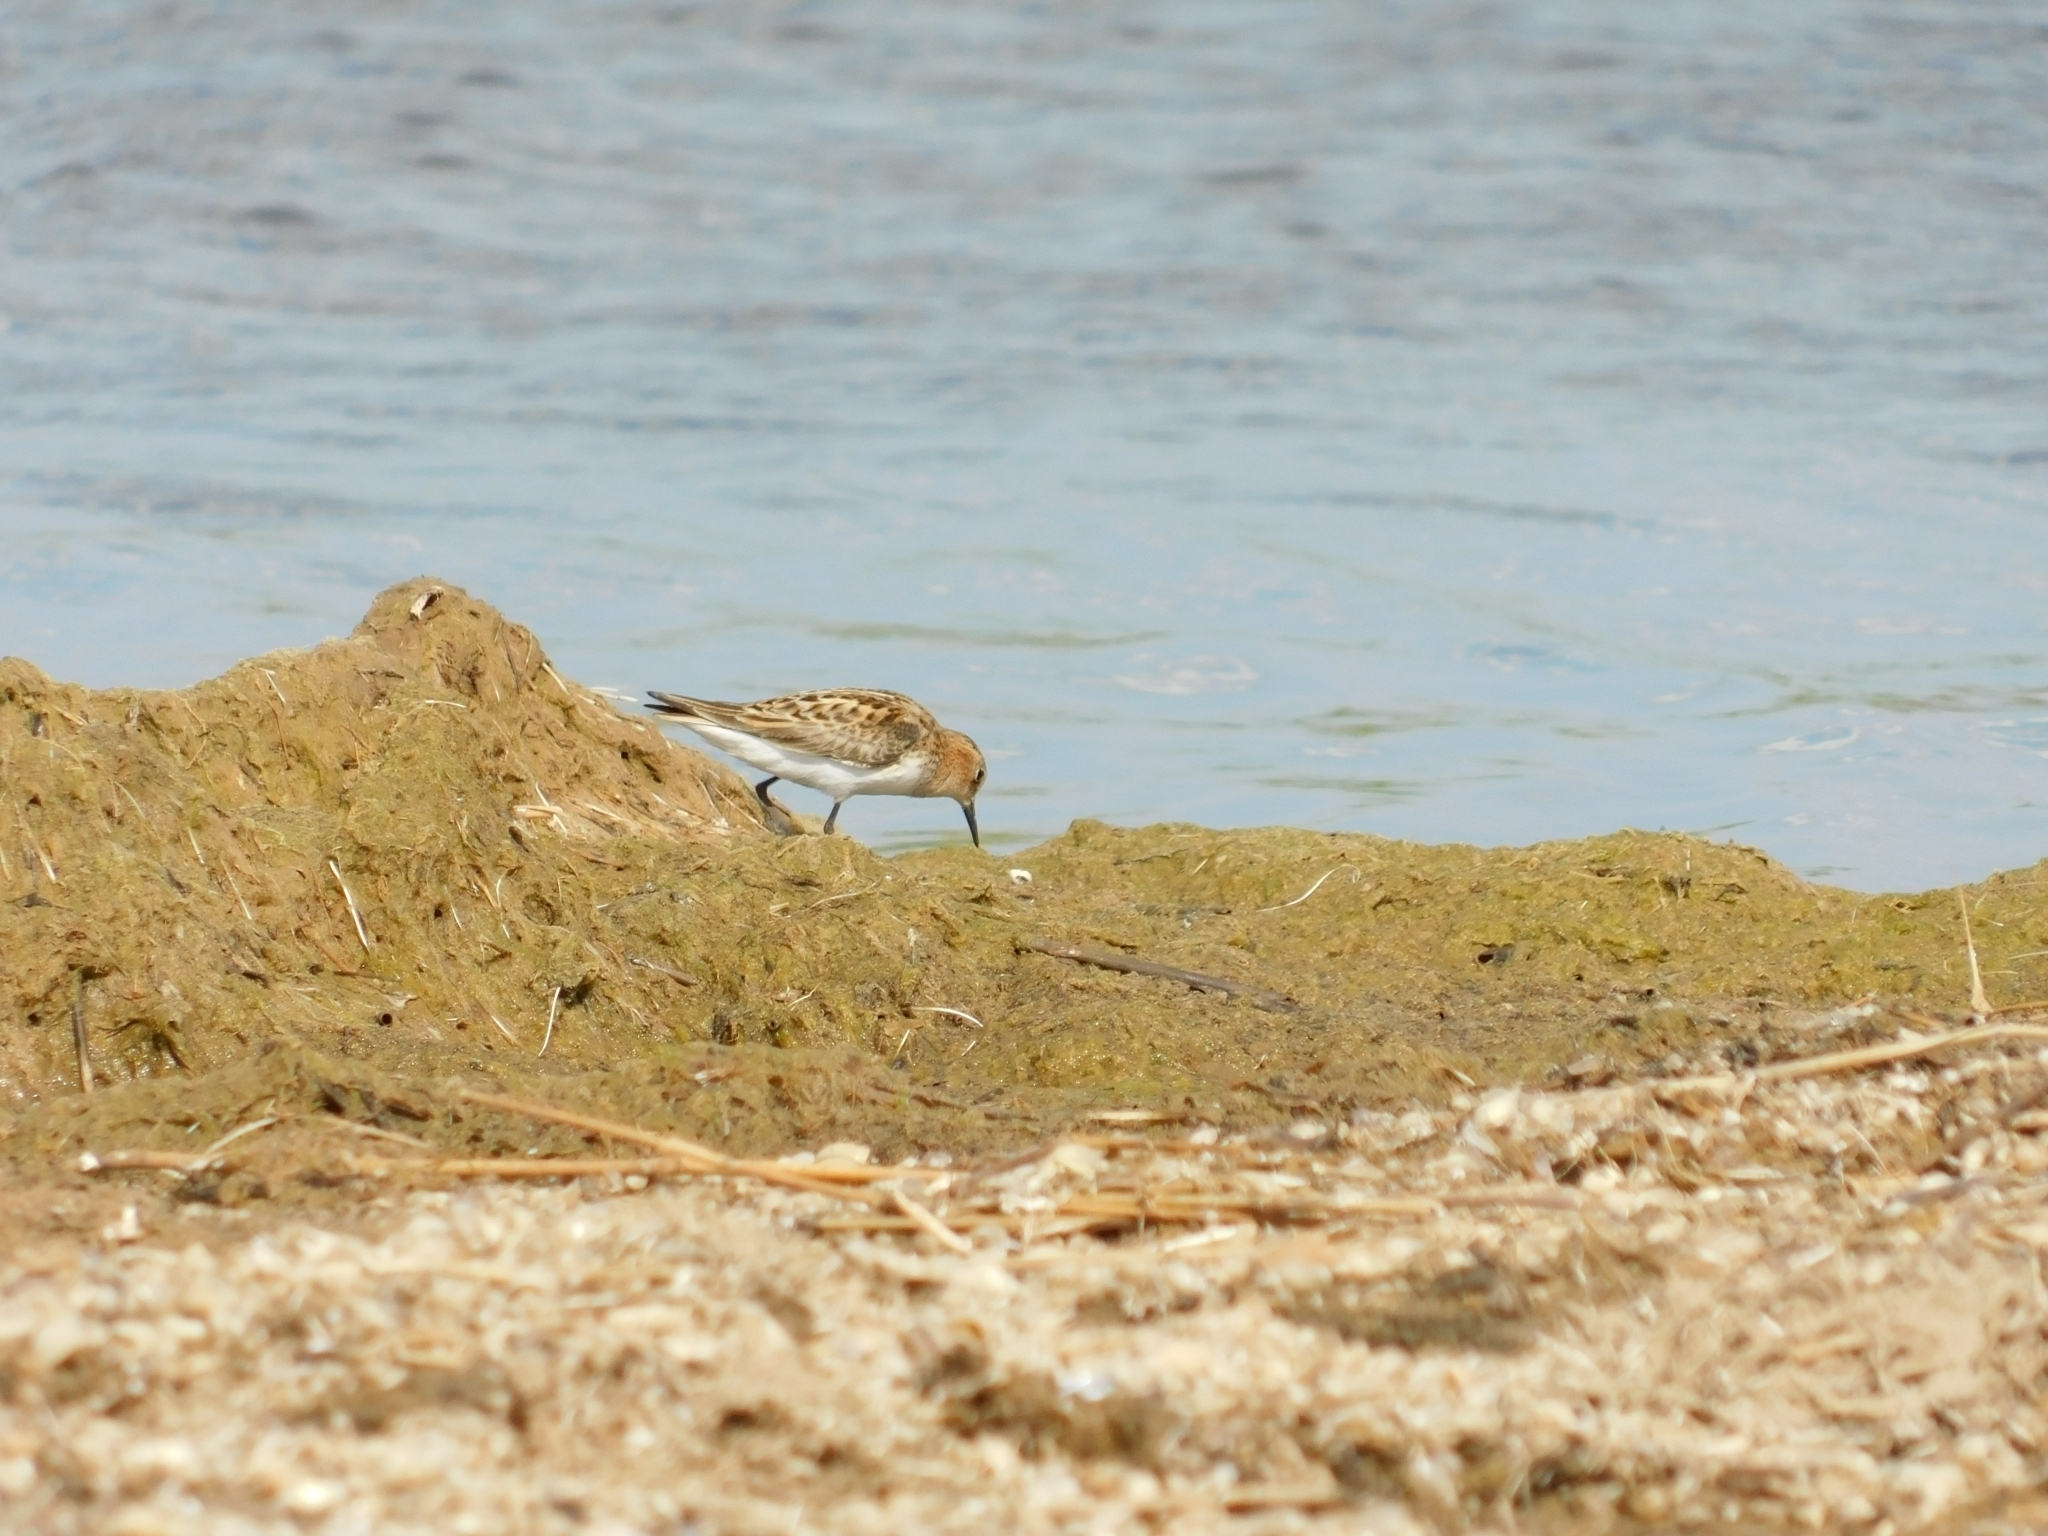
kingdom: Animalia
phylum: Chordata
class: Aves
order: Charadriiformes
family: Scolopacidae
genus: Calidris
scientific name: Calidris minuta
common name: Little stint
